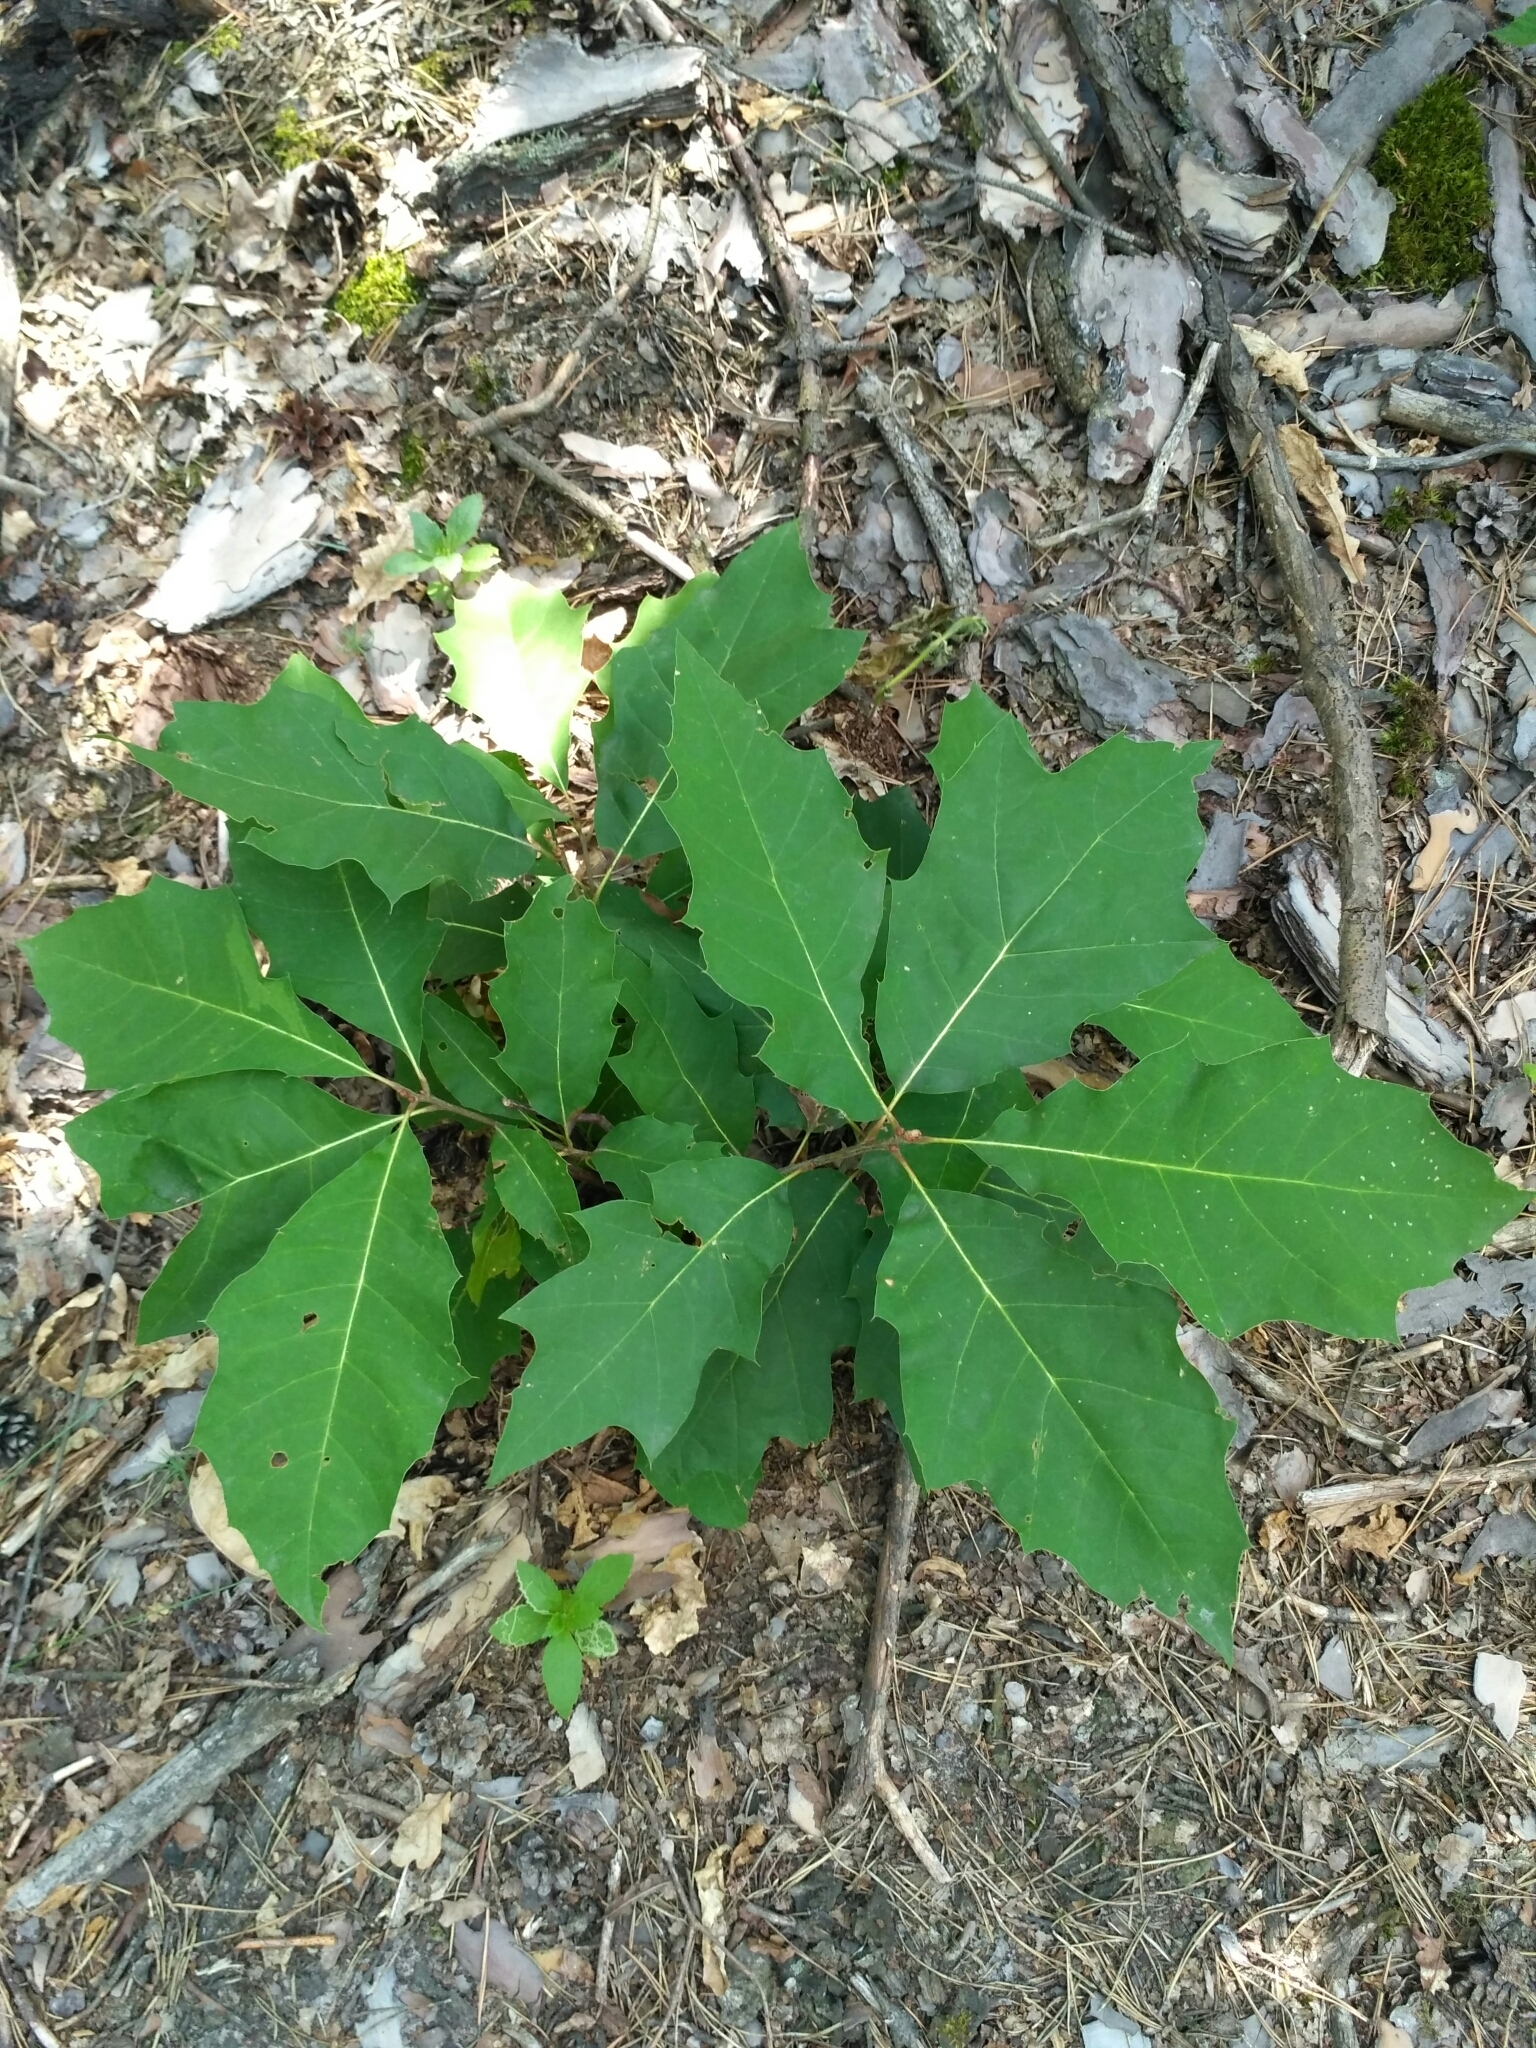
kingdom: Plantae
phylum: Tracheophyta
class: Magnoliopsida
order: Fagales
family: Fagaceae
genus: Quercus
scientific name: Quercus rubra
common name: Red oak
